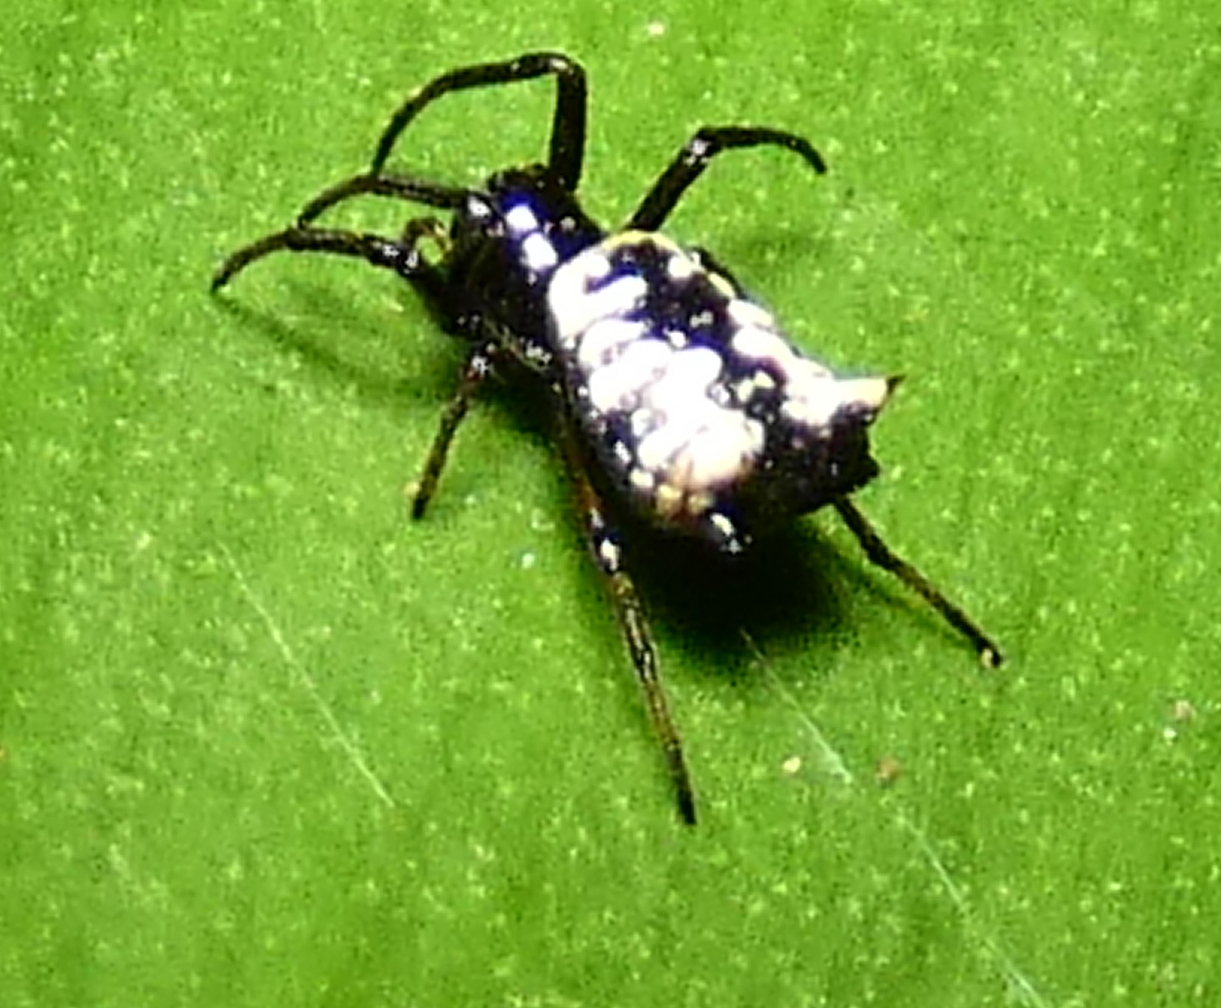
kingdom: Animalia
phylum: Arthropoda
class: Arachnida
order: Araneae
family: Araneidae
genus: Micrathena
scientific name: Micrathena patruelis
